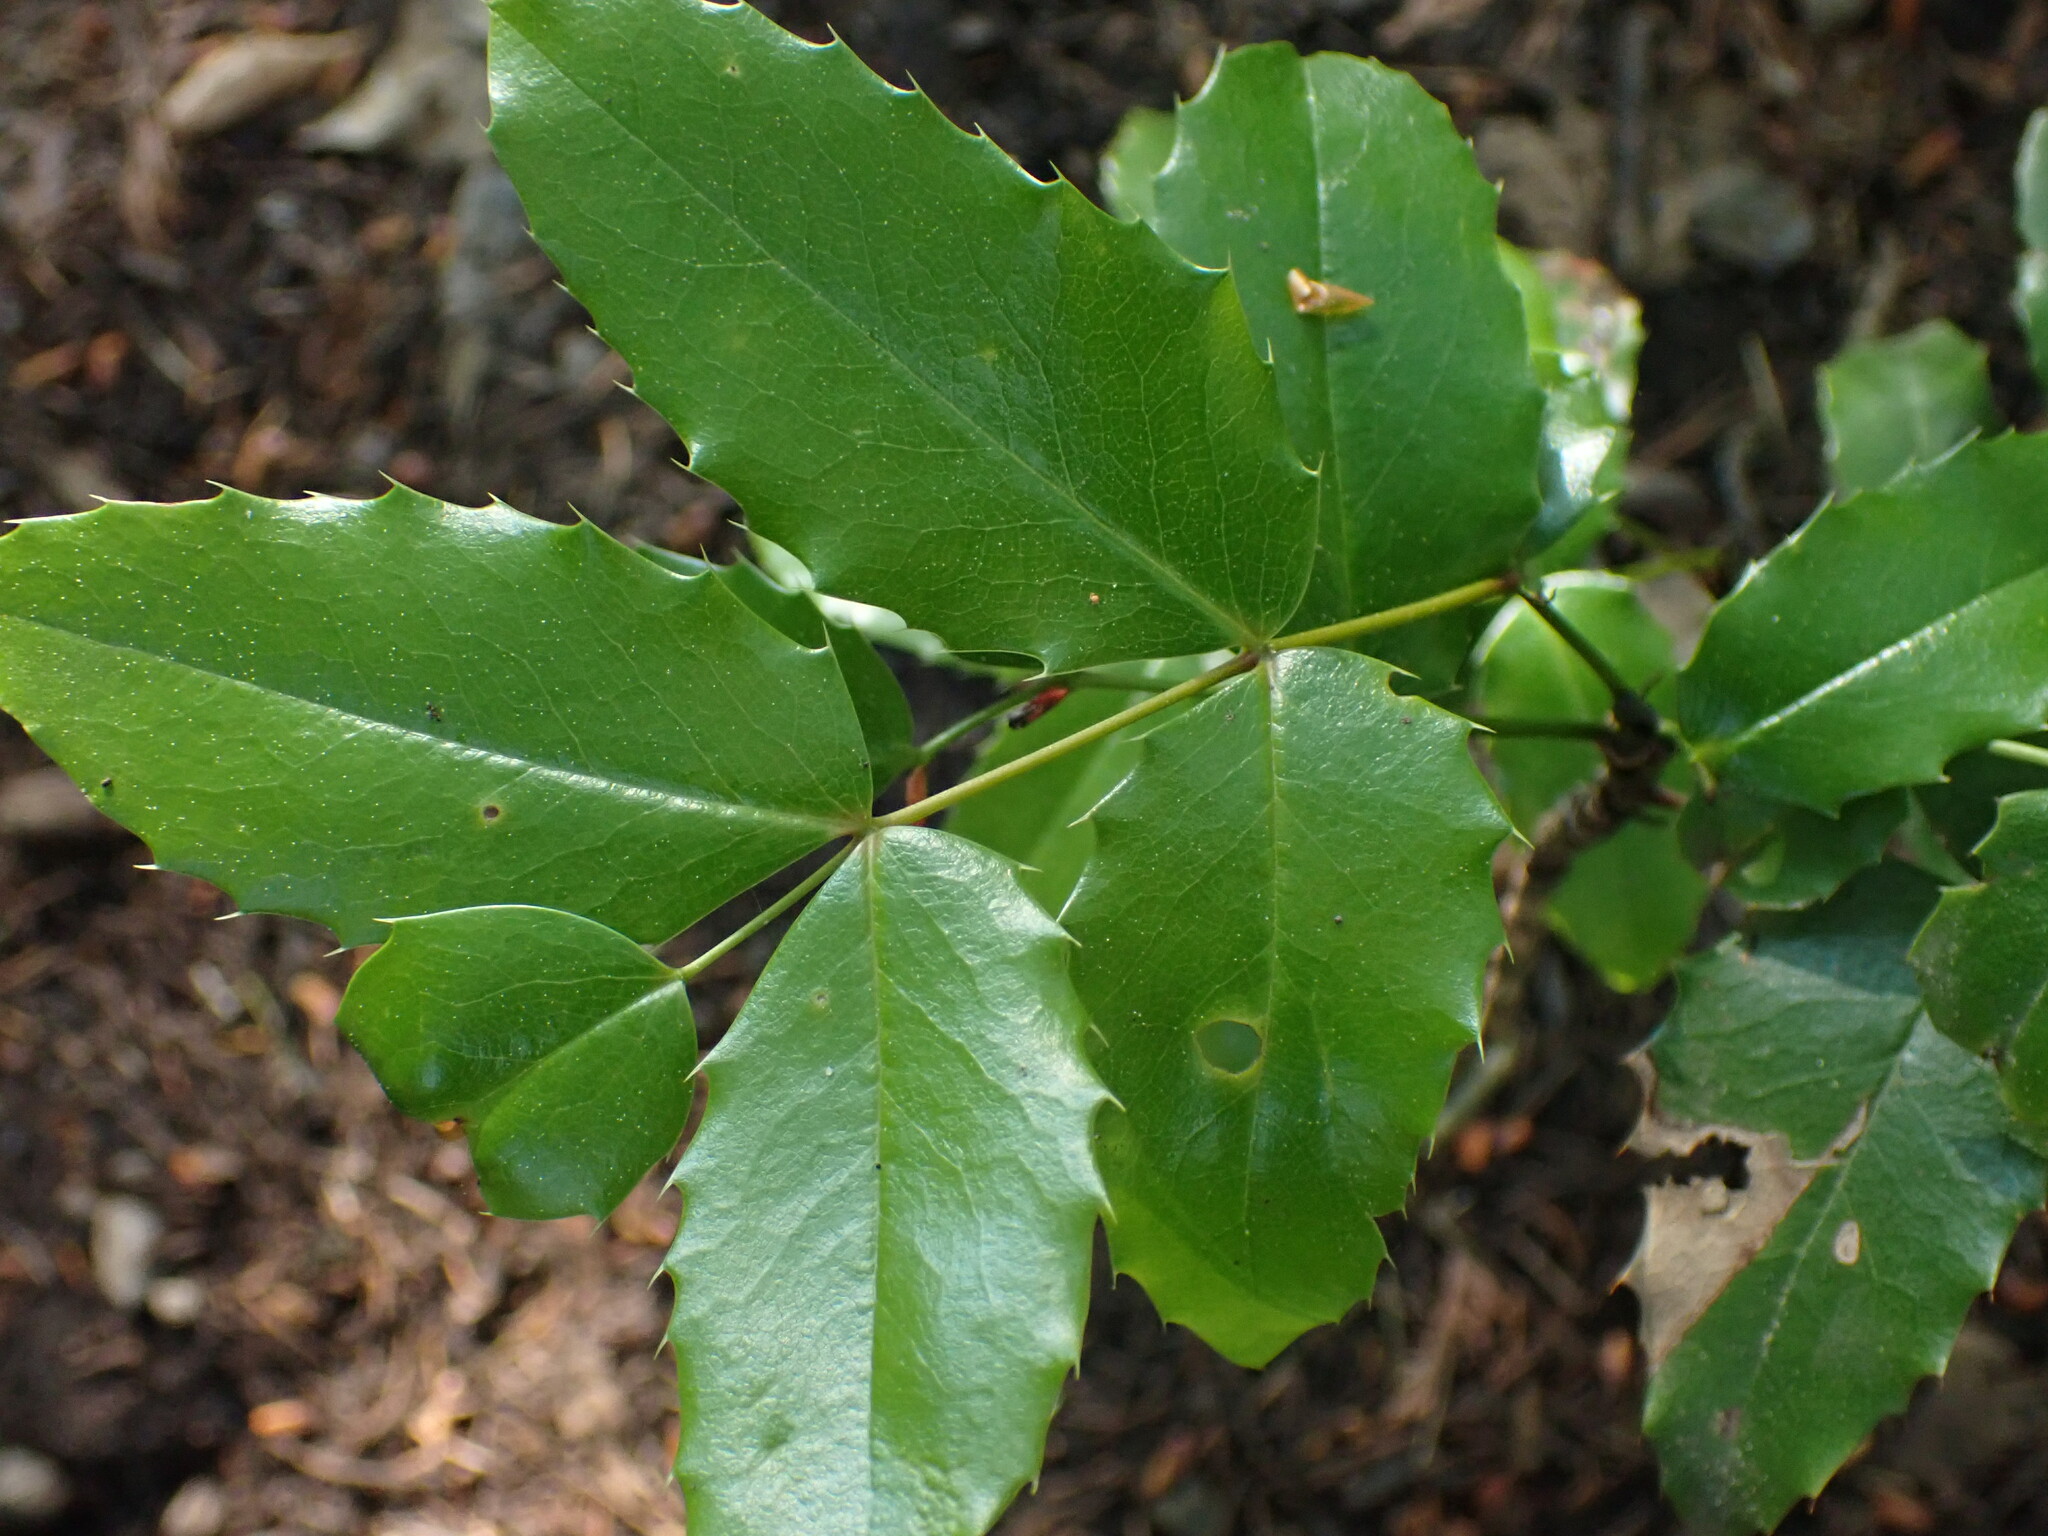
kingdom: Plantae
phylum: Tracheophyta
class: Magnoliopsida
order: Ranunculales
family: Berberidaceae
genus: Mahonia
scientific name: Mahonia aquifolium
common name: Oregon-grape
